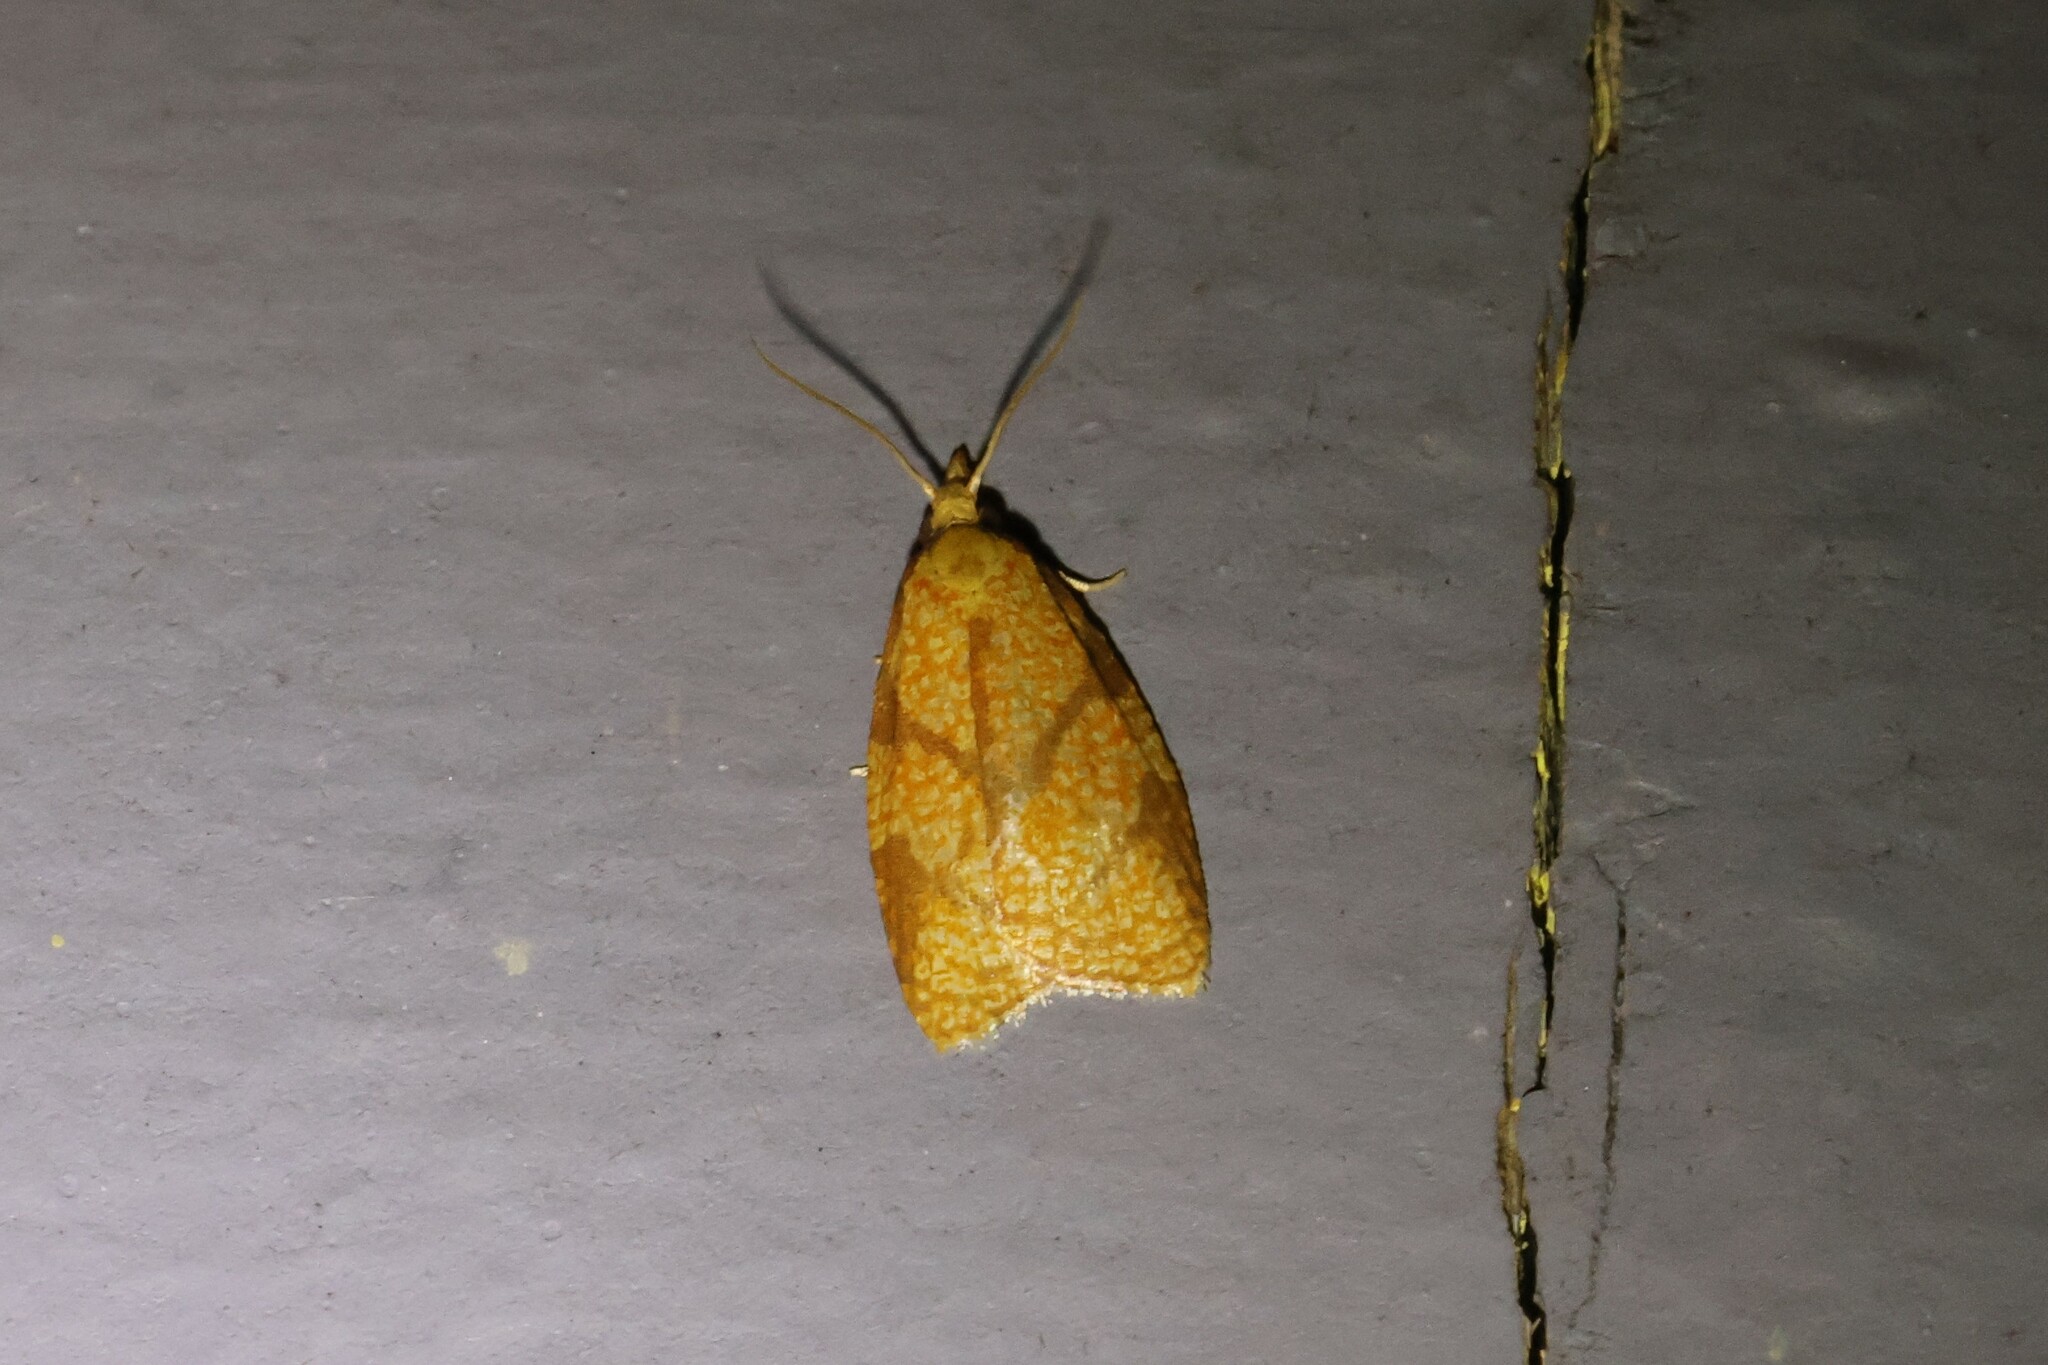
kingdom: Animalia
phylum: Arthropoda
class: Insecta
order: Lepidoptera
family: Tortricidae
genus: Cenopis
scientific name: Cenopis reticulatana
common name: Reticulated fruitworm moth
